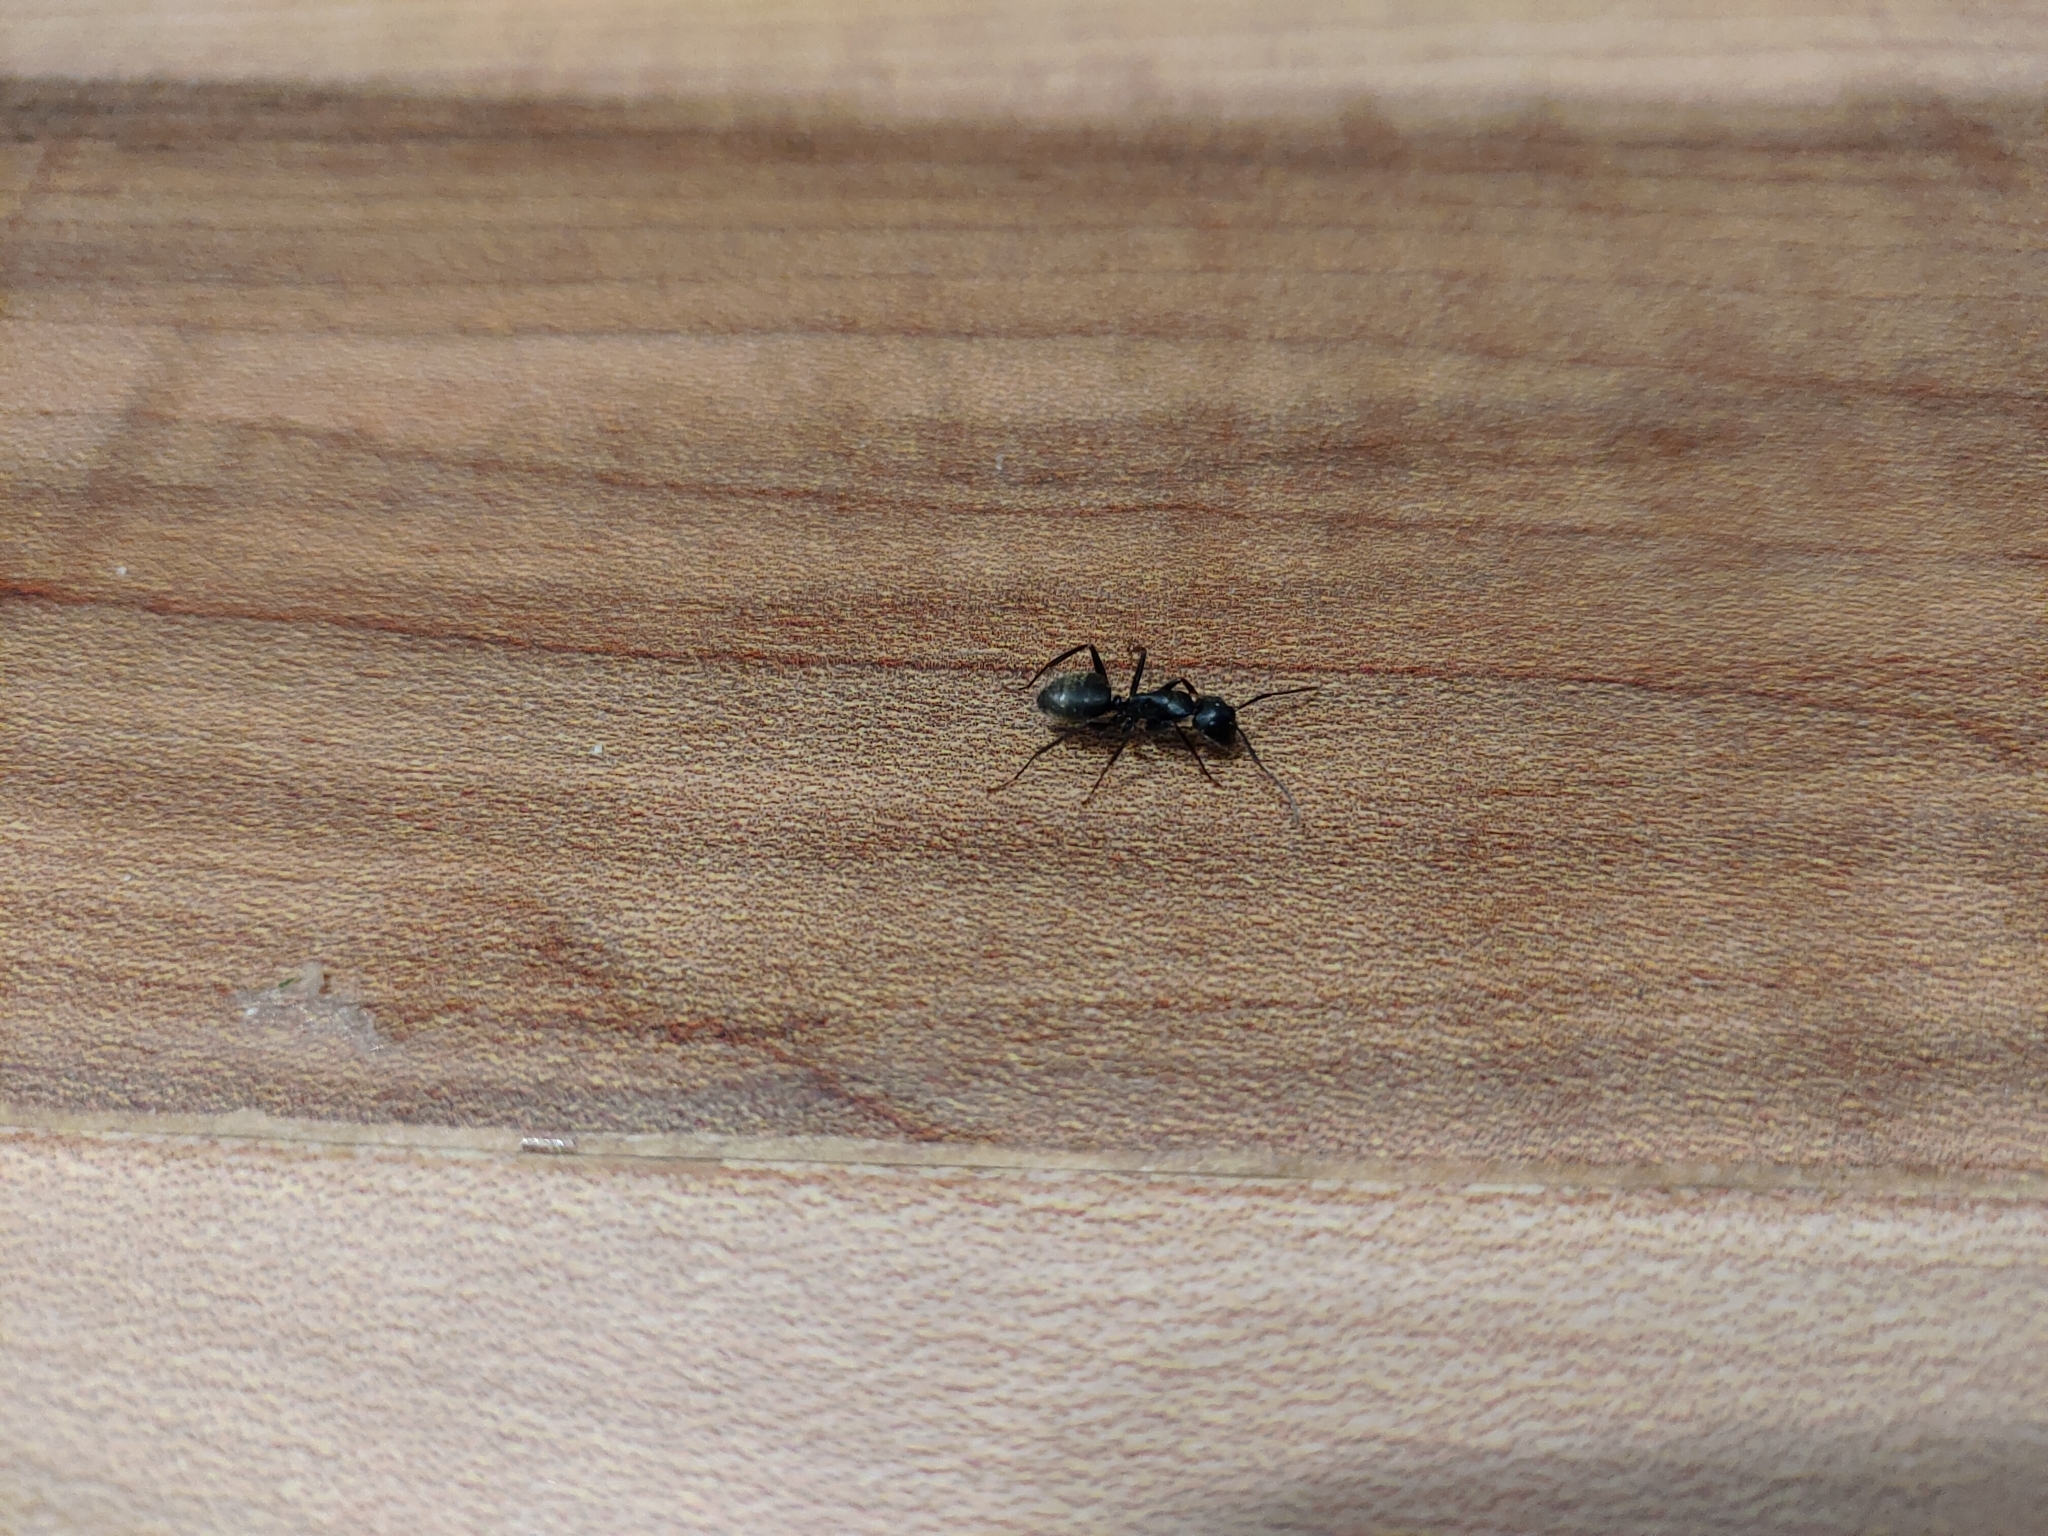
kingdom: Animalia
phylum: Arthropoda
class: Insecta
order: Hymenoptera
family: Formicidae
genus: Camponotus
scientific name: Camponotus pennsylvanicus
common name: Black carpenter ant
